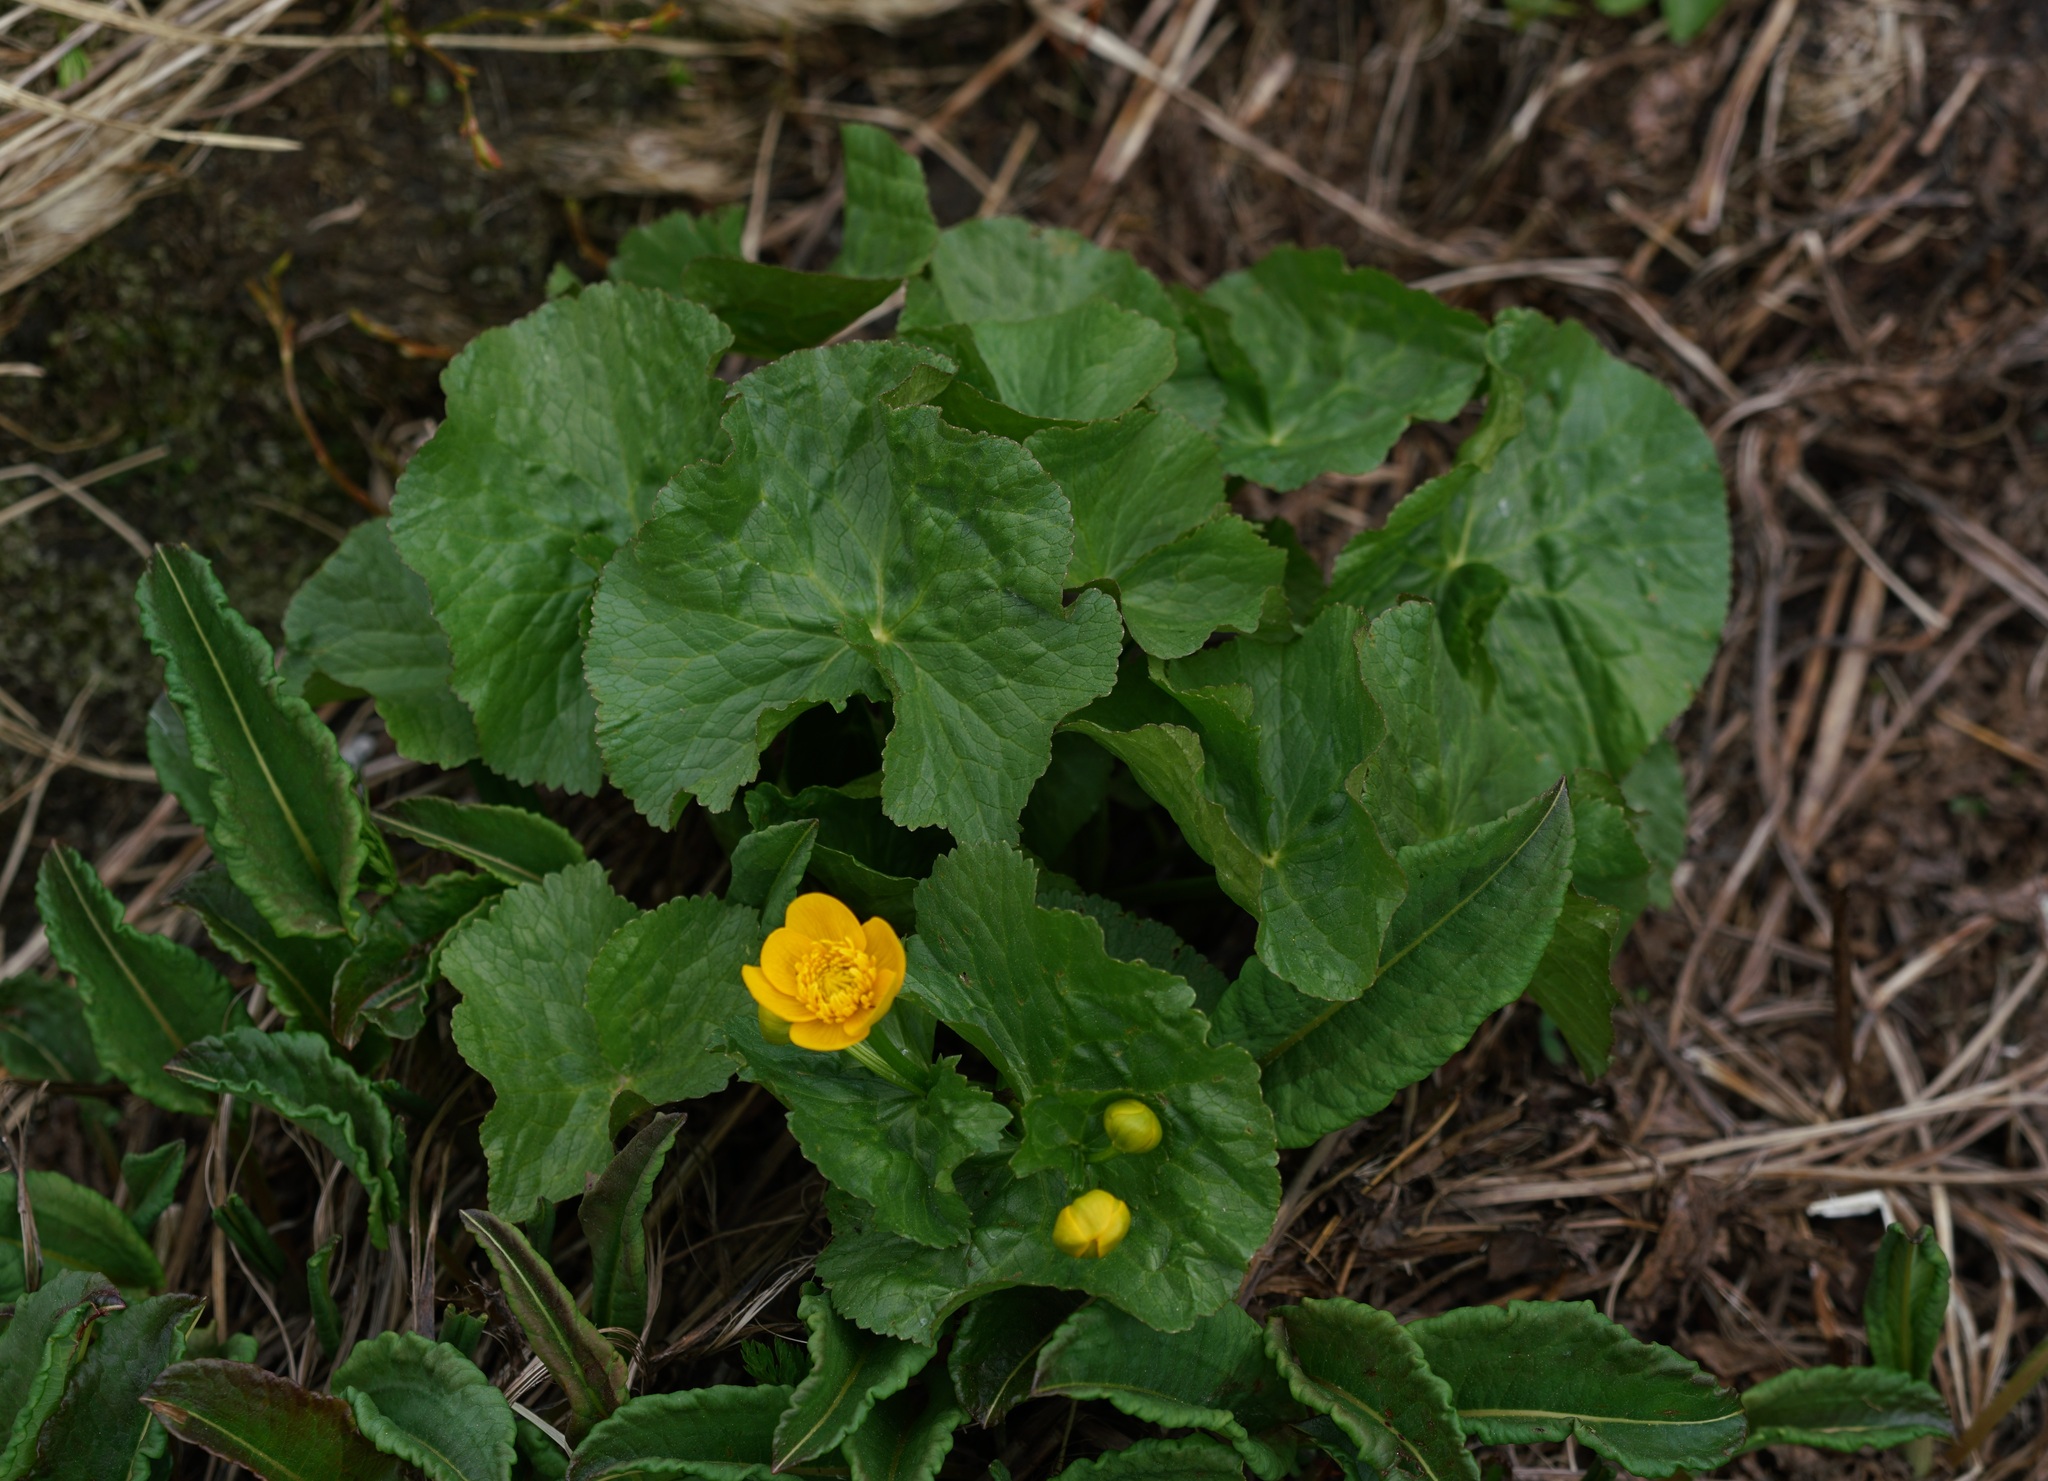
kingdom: Plantae
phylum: Tracheophyta
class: Magnoliopsida
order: Ranunculales
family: Ranunculaceae
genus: Caltha
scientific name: Caltha palustris
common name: Marsh marigold
